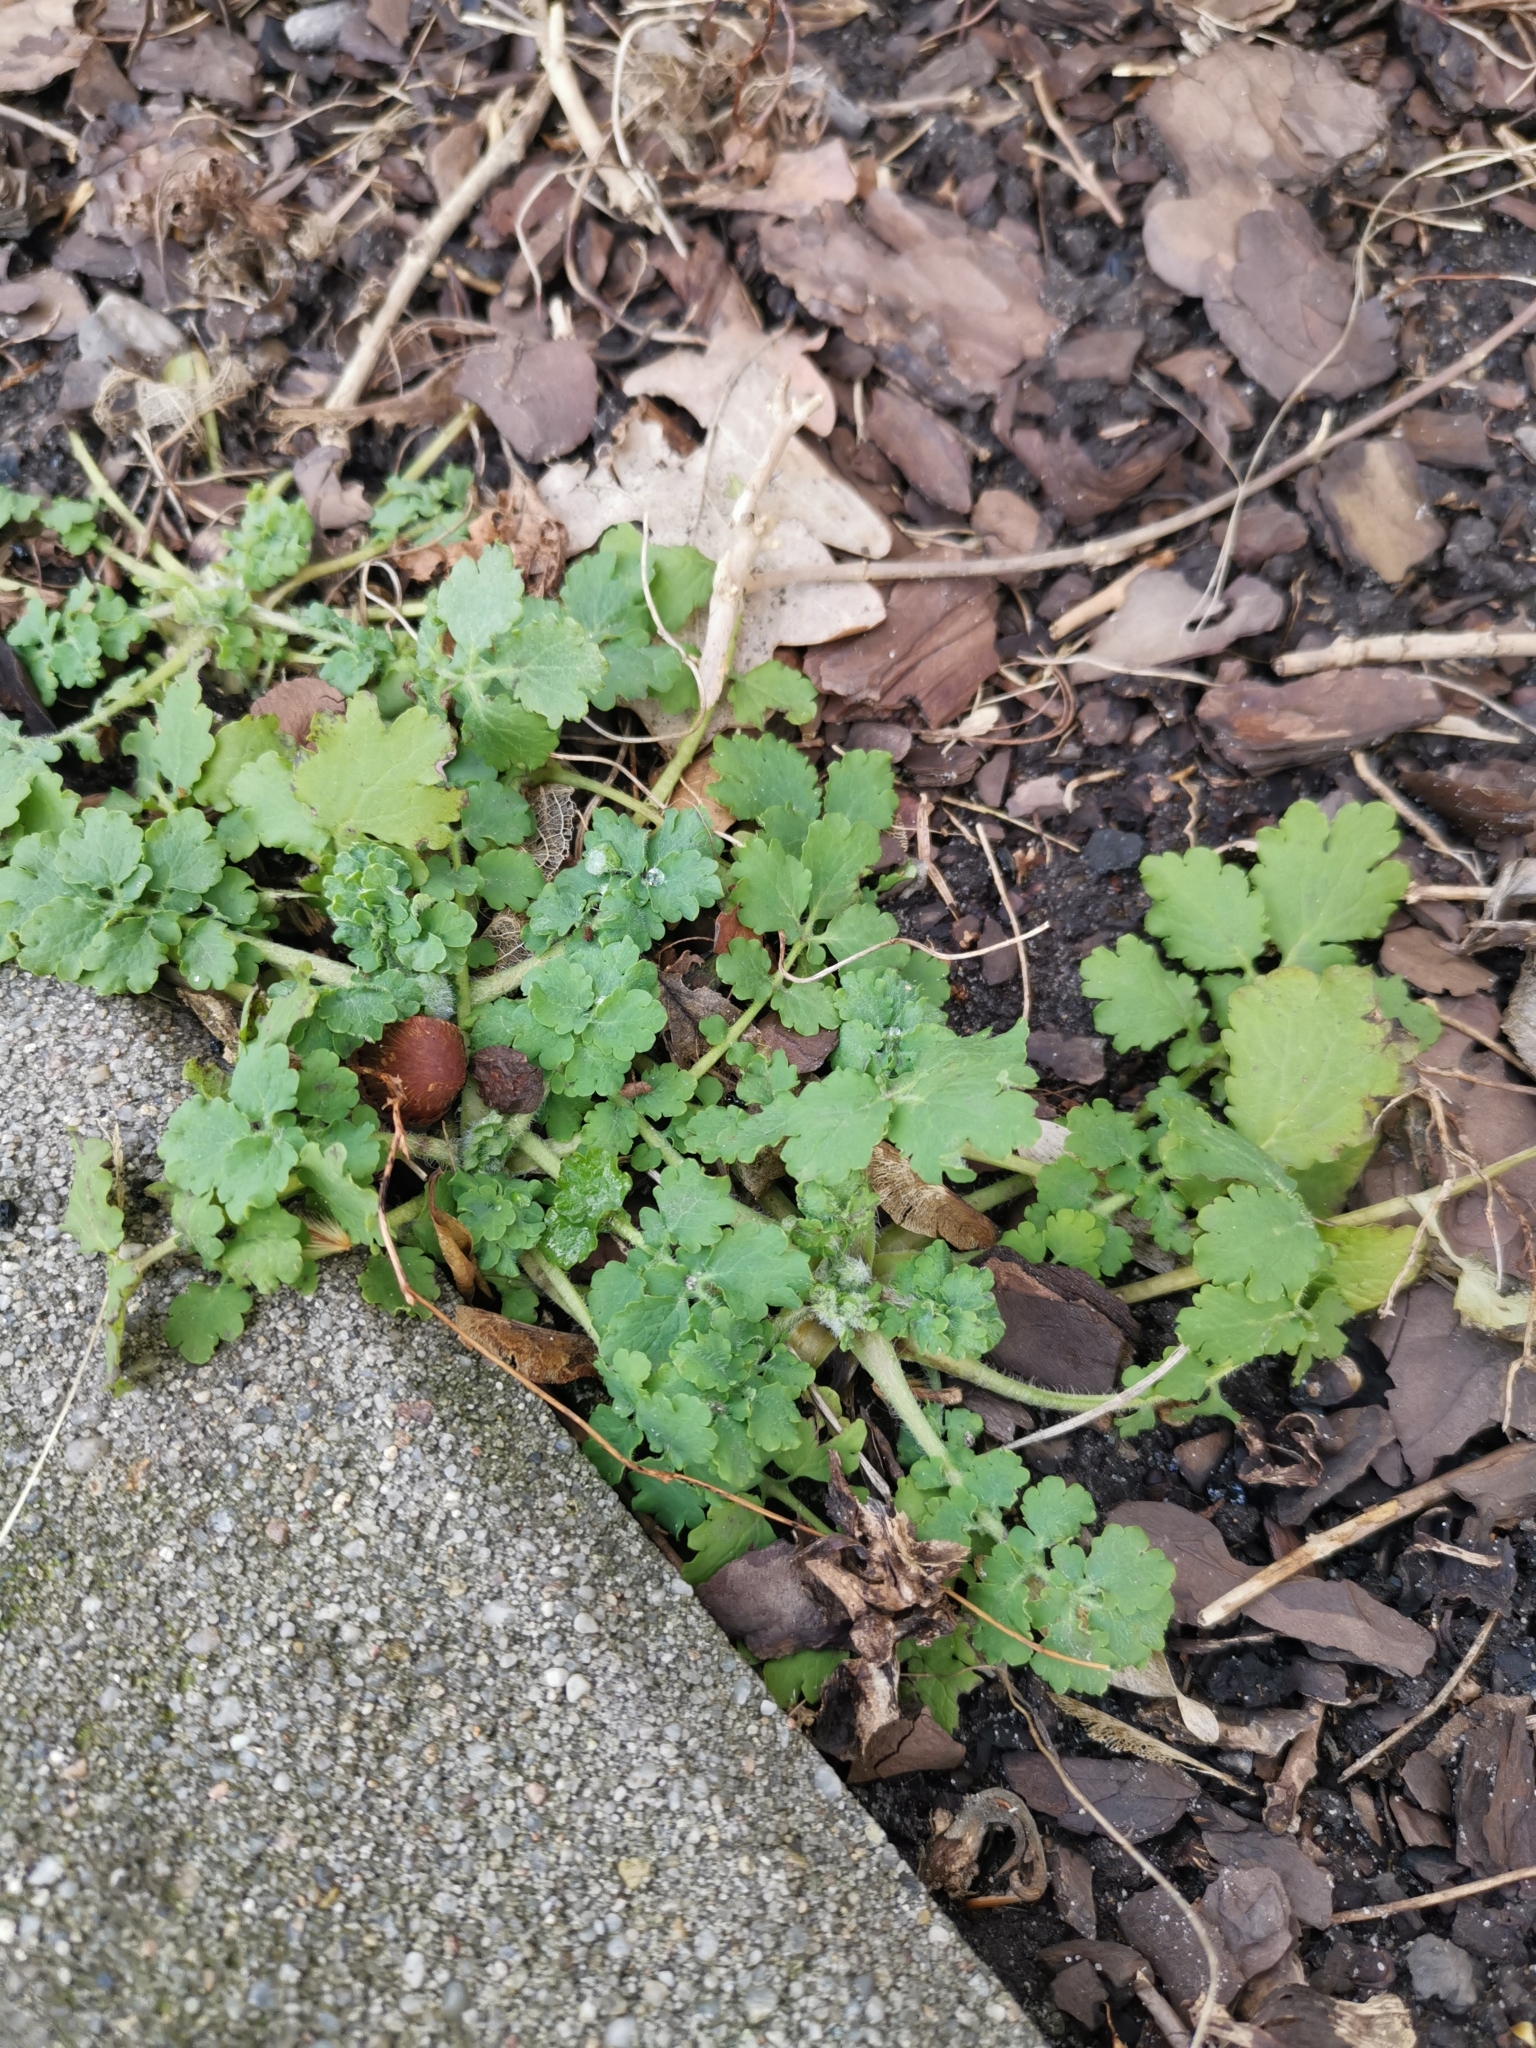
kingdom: Plantae
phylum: Tracheophyta
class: Magnoliopsida
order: Ranunculales
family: Papaveraceae
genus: Chelidonium
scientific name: Chelidonium majus
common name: Greater celandine
